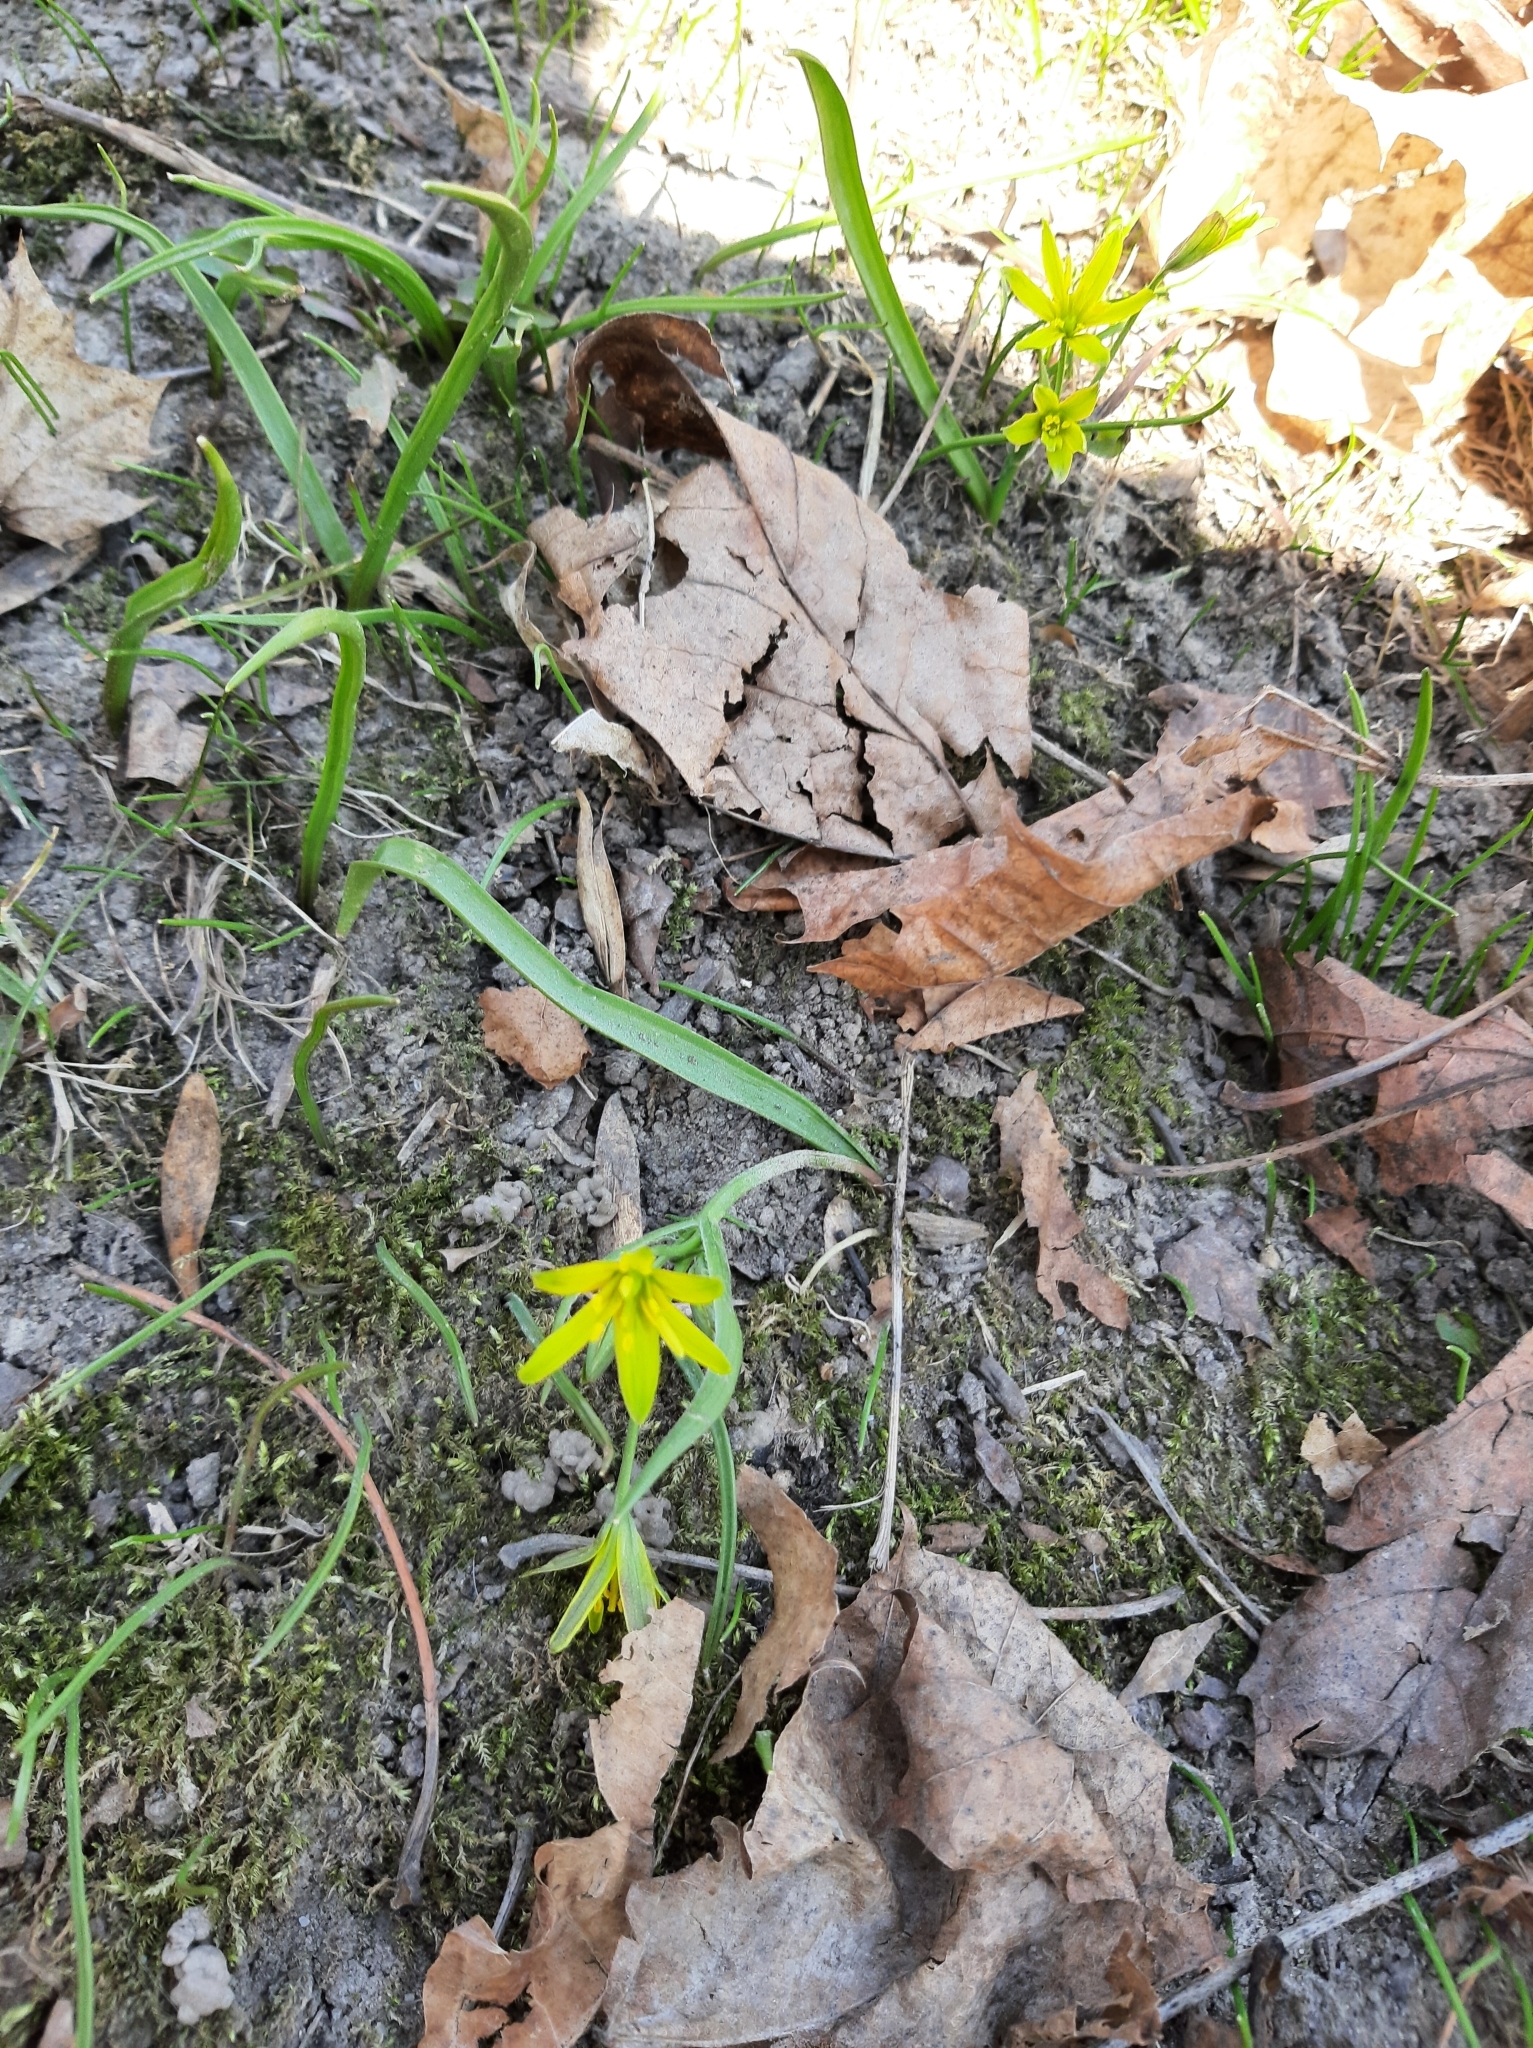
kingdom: Plantae
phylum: Tracheophyta
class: Liliopsida
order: Liliales
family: Liliaceae
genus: Gagea
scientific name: Gagea lutea
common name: Yellow star-of-bethlehem
